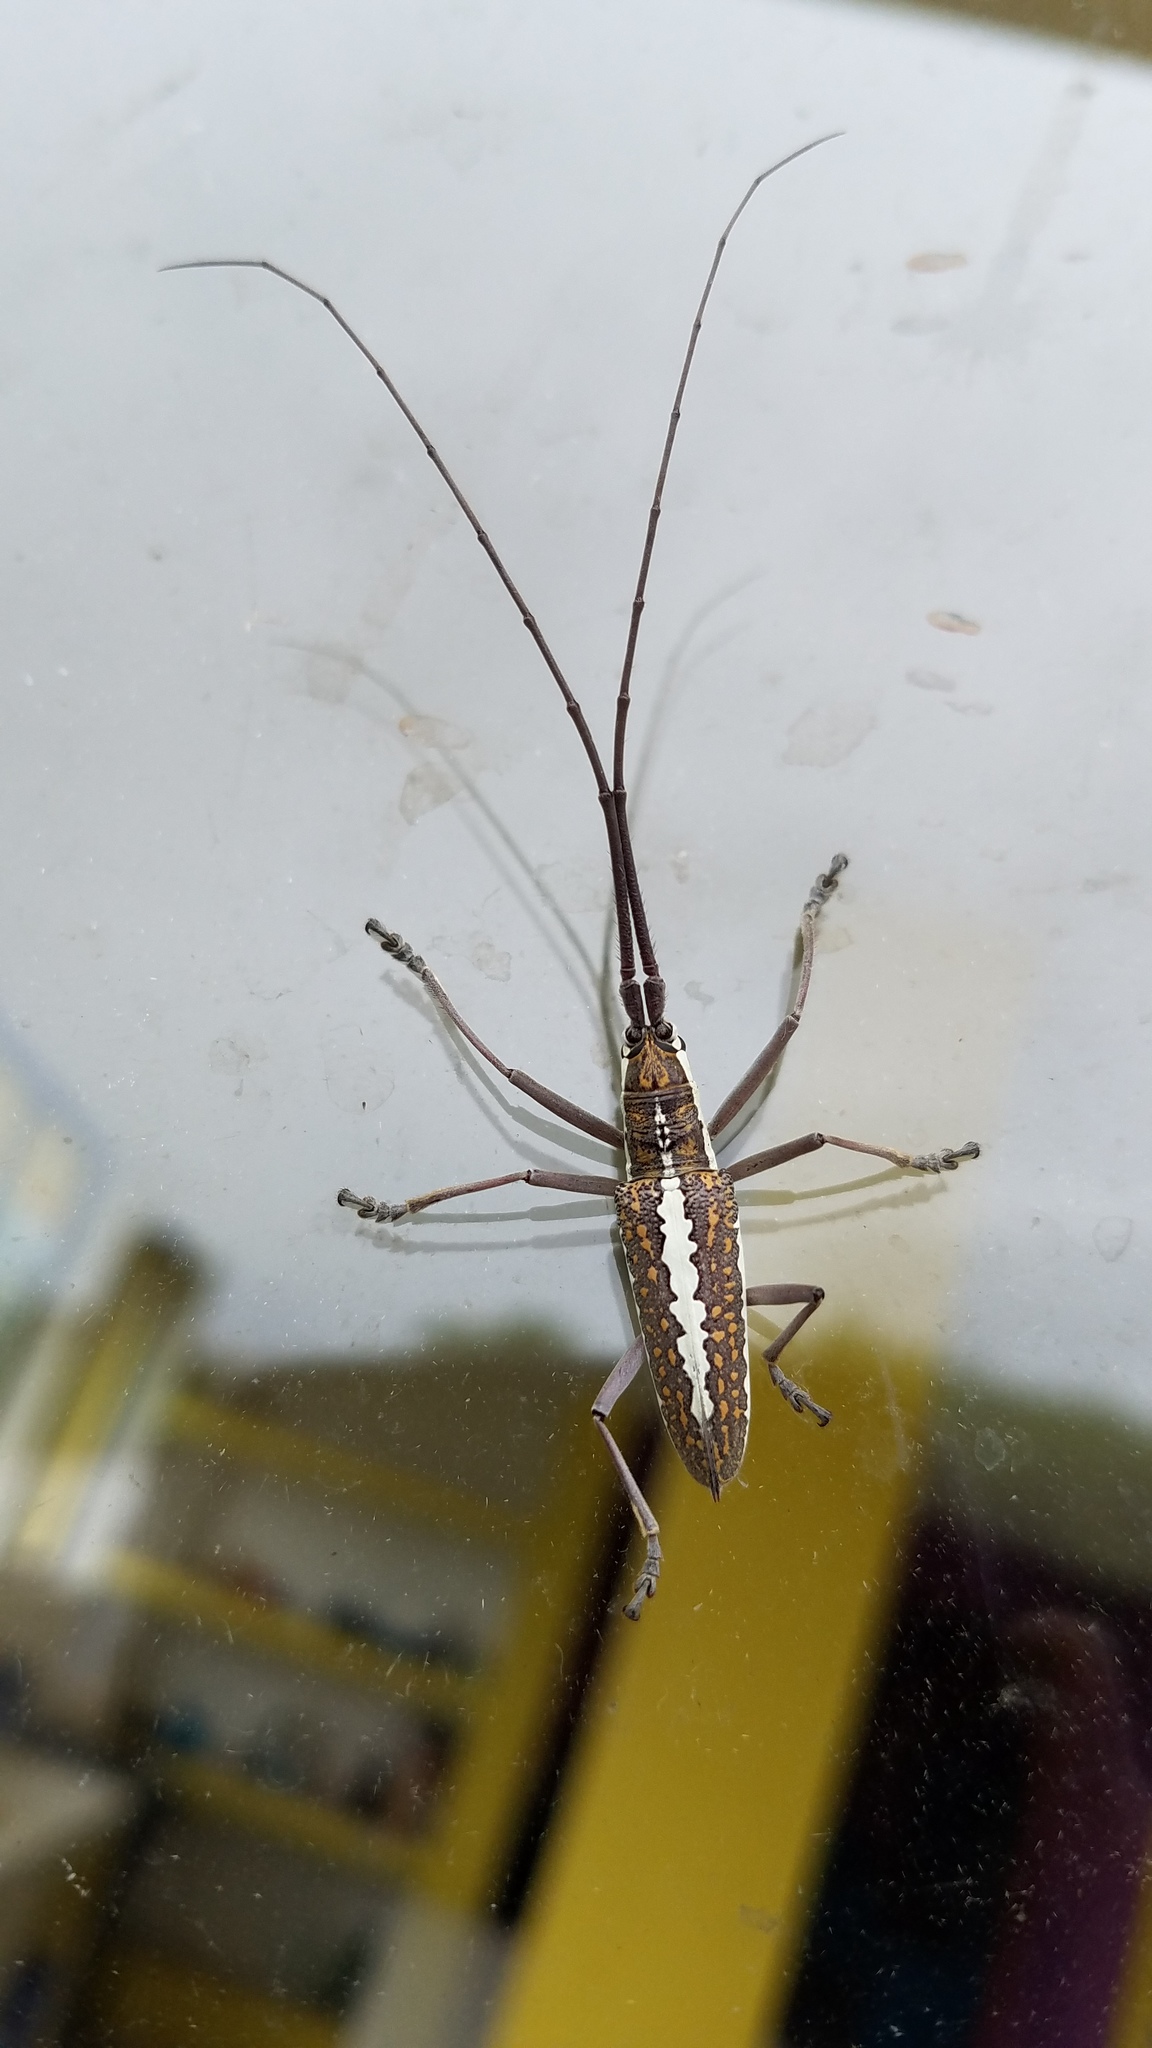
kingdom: Animalia
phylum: Arthropoda
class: Insecta
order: Coleoptera
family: Cerambycidae
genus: Neoptychodes
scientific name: Neoptychodes trilineatus
